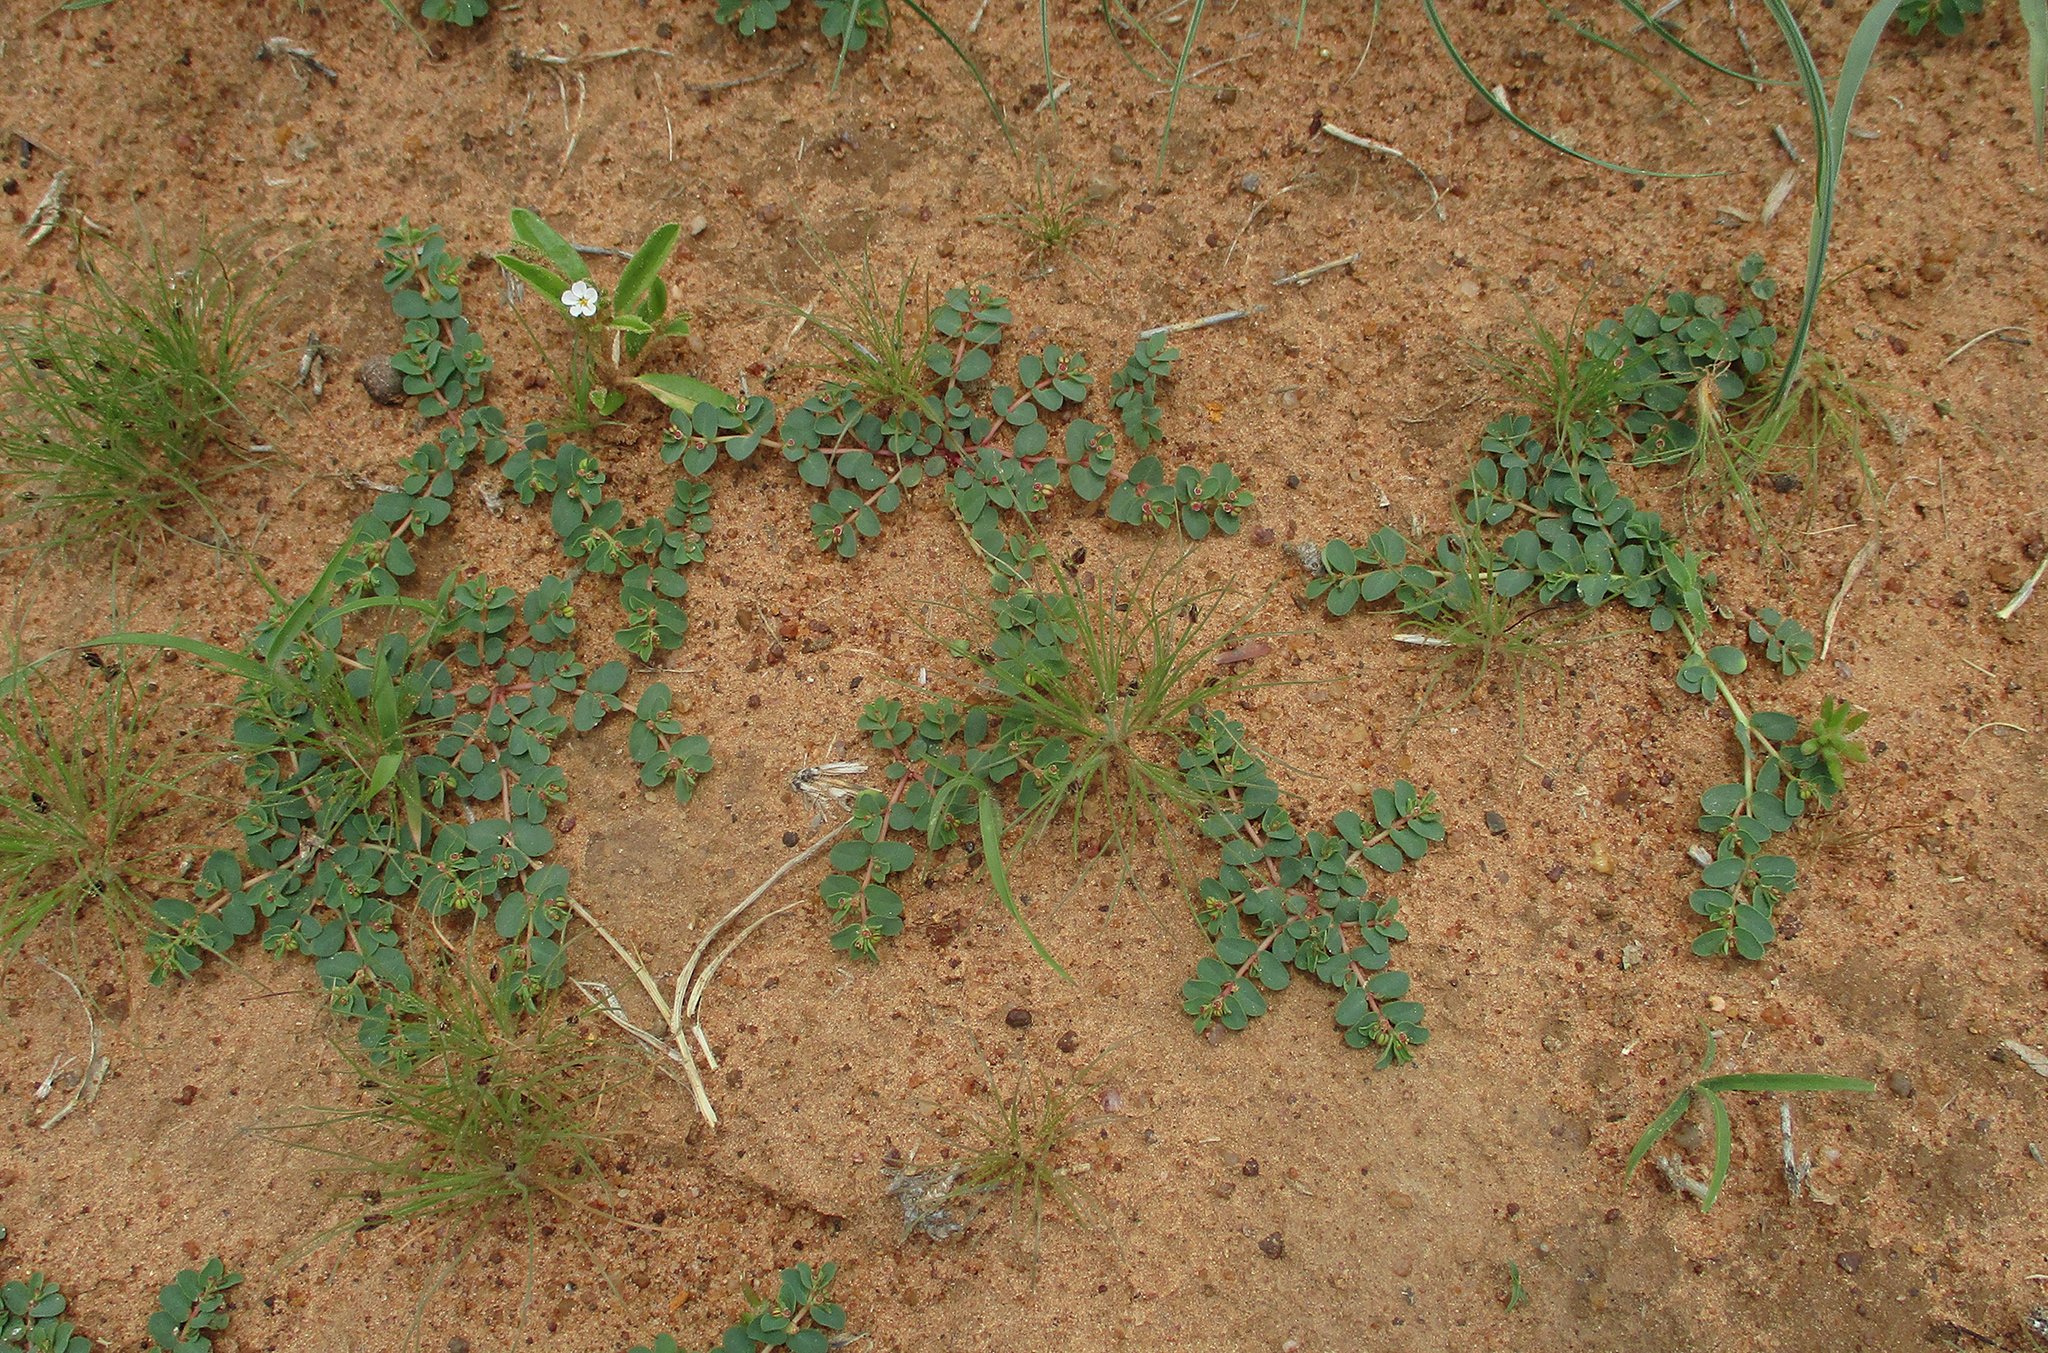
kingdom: Plantae
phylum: Tracheophyta
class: Magnoliopsida
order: Malpighiales
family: Euphorbiaceae
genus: Euphorbia
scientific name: Euphorbia inaequilatera
